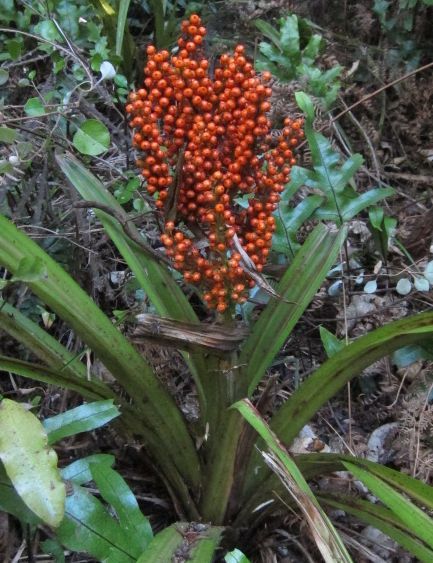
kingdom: Plantae
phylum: Tracheophyta
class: Liliopsida
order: Asparagales
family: Asteliaceae
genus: Astelia
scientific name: Astelia fragrans
